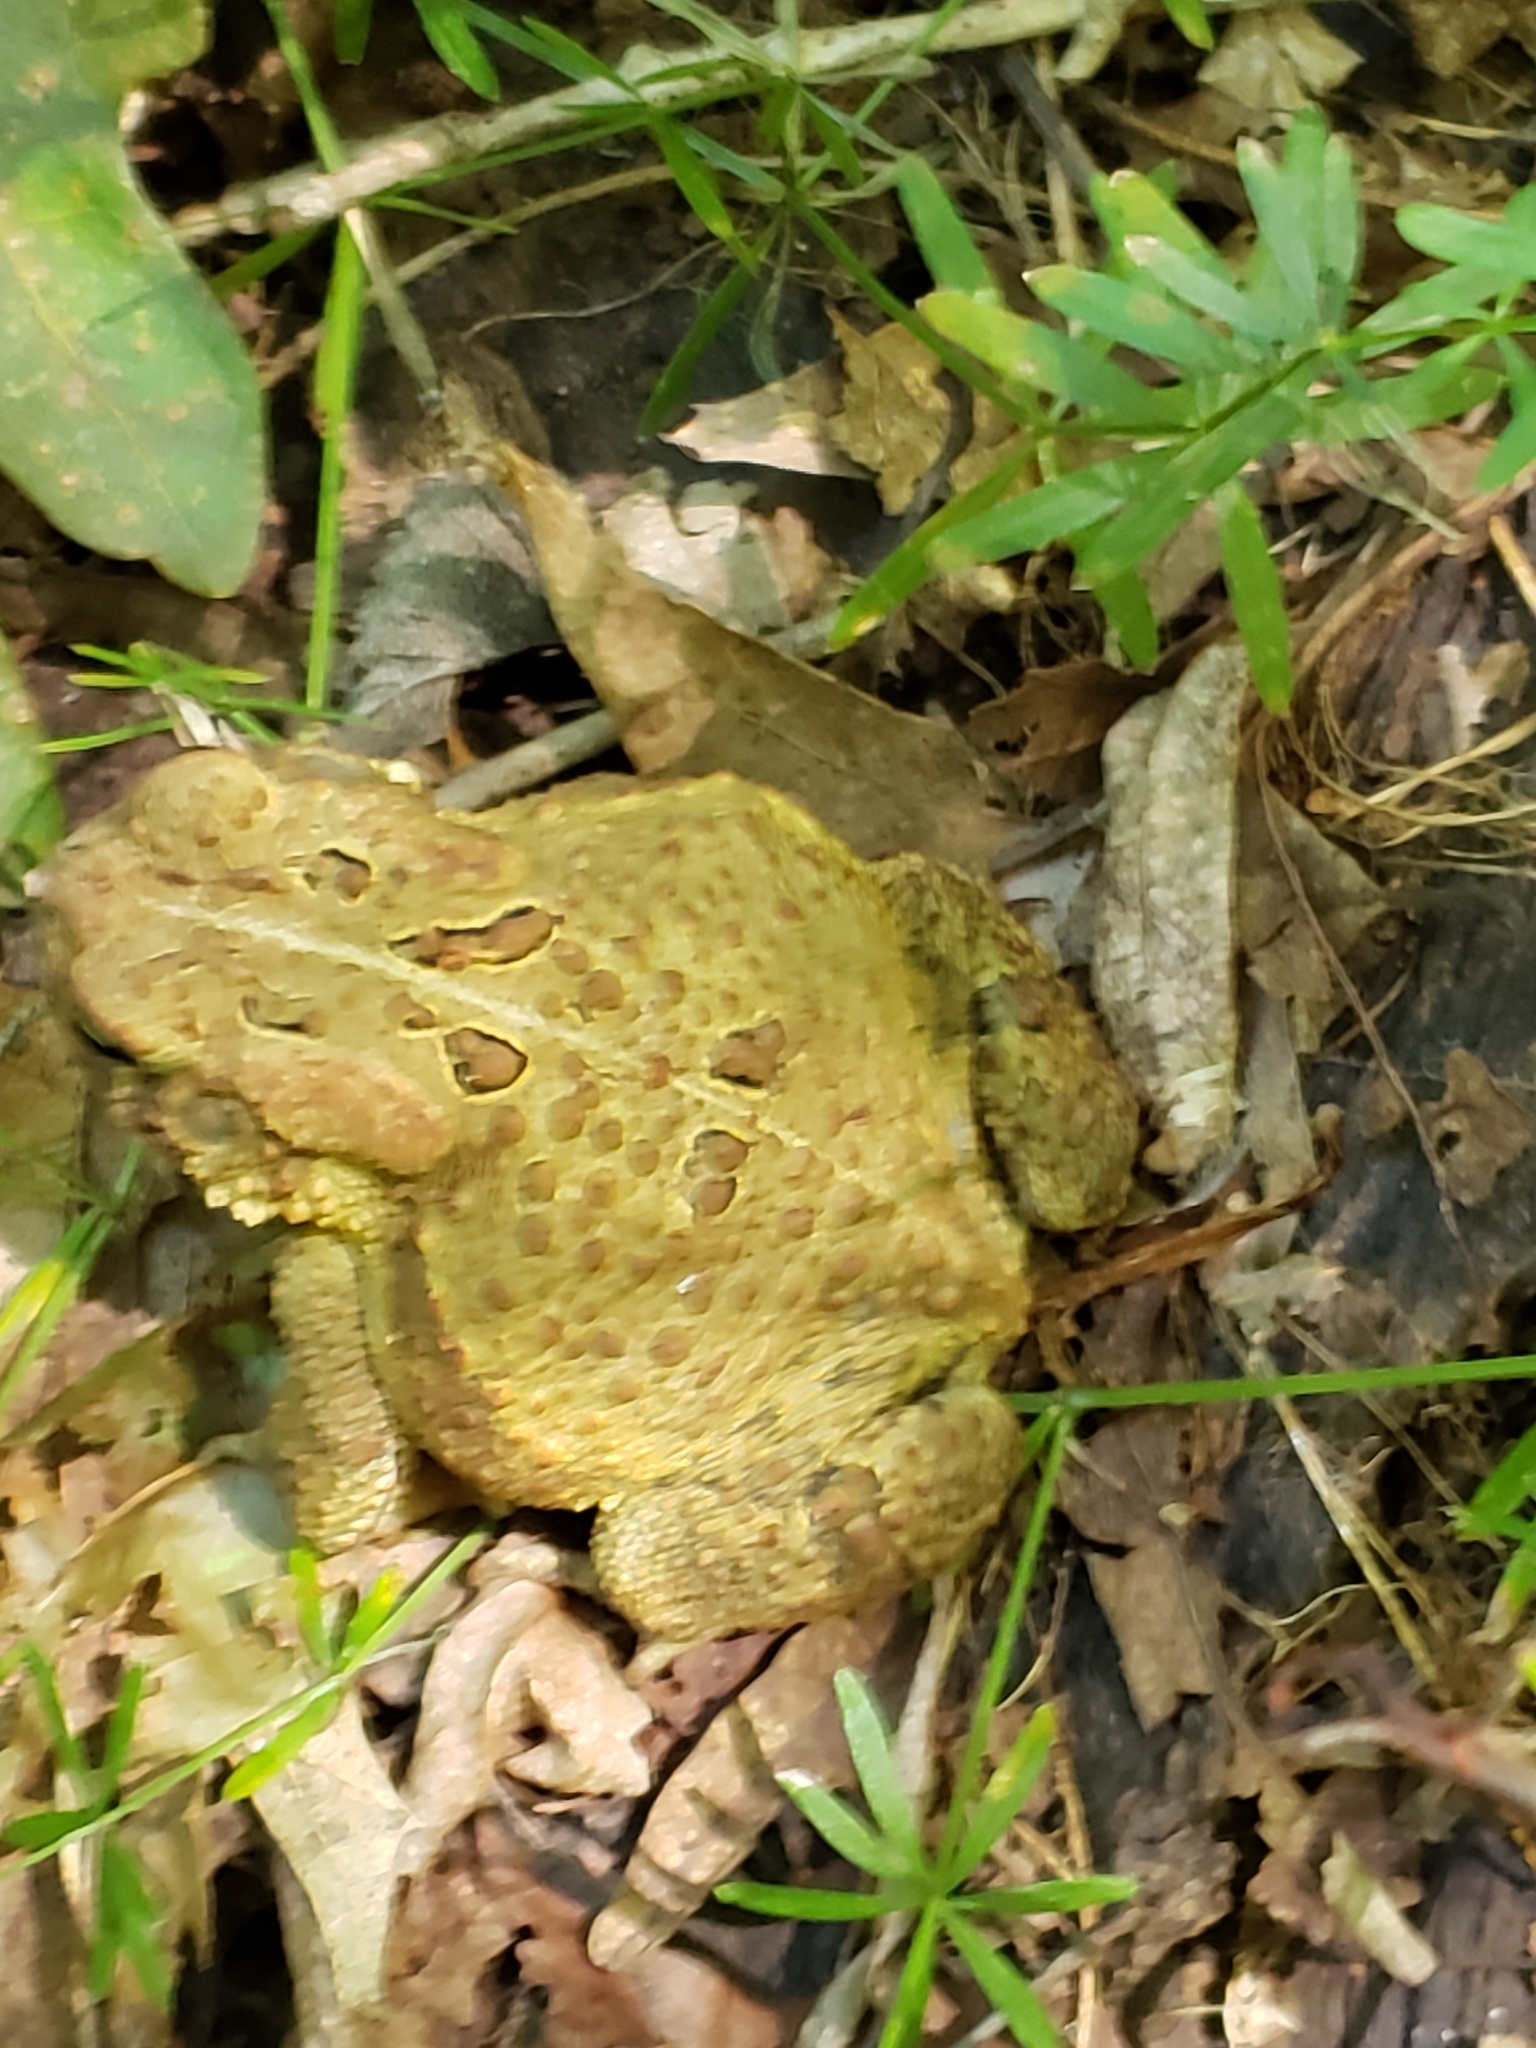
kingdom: Animalia
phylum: Chordata
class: Amphibia
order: Anura
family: Bufonidae
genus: Anaxyrus
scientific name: Anaxyrus americanus
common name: American toad
